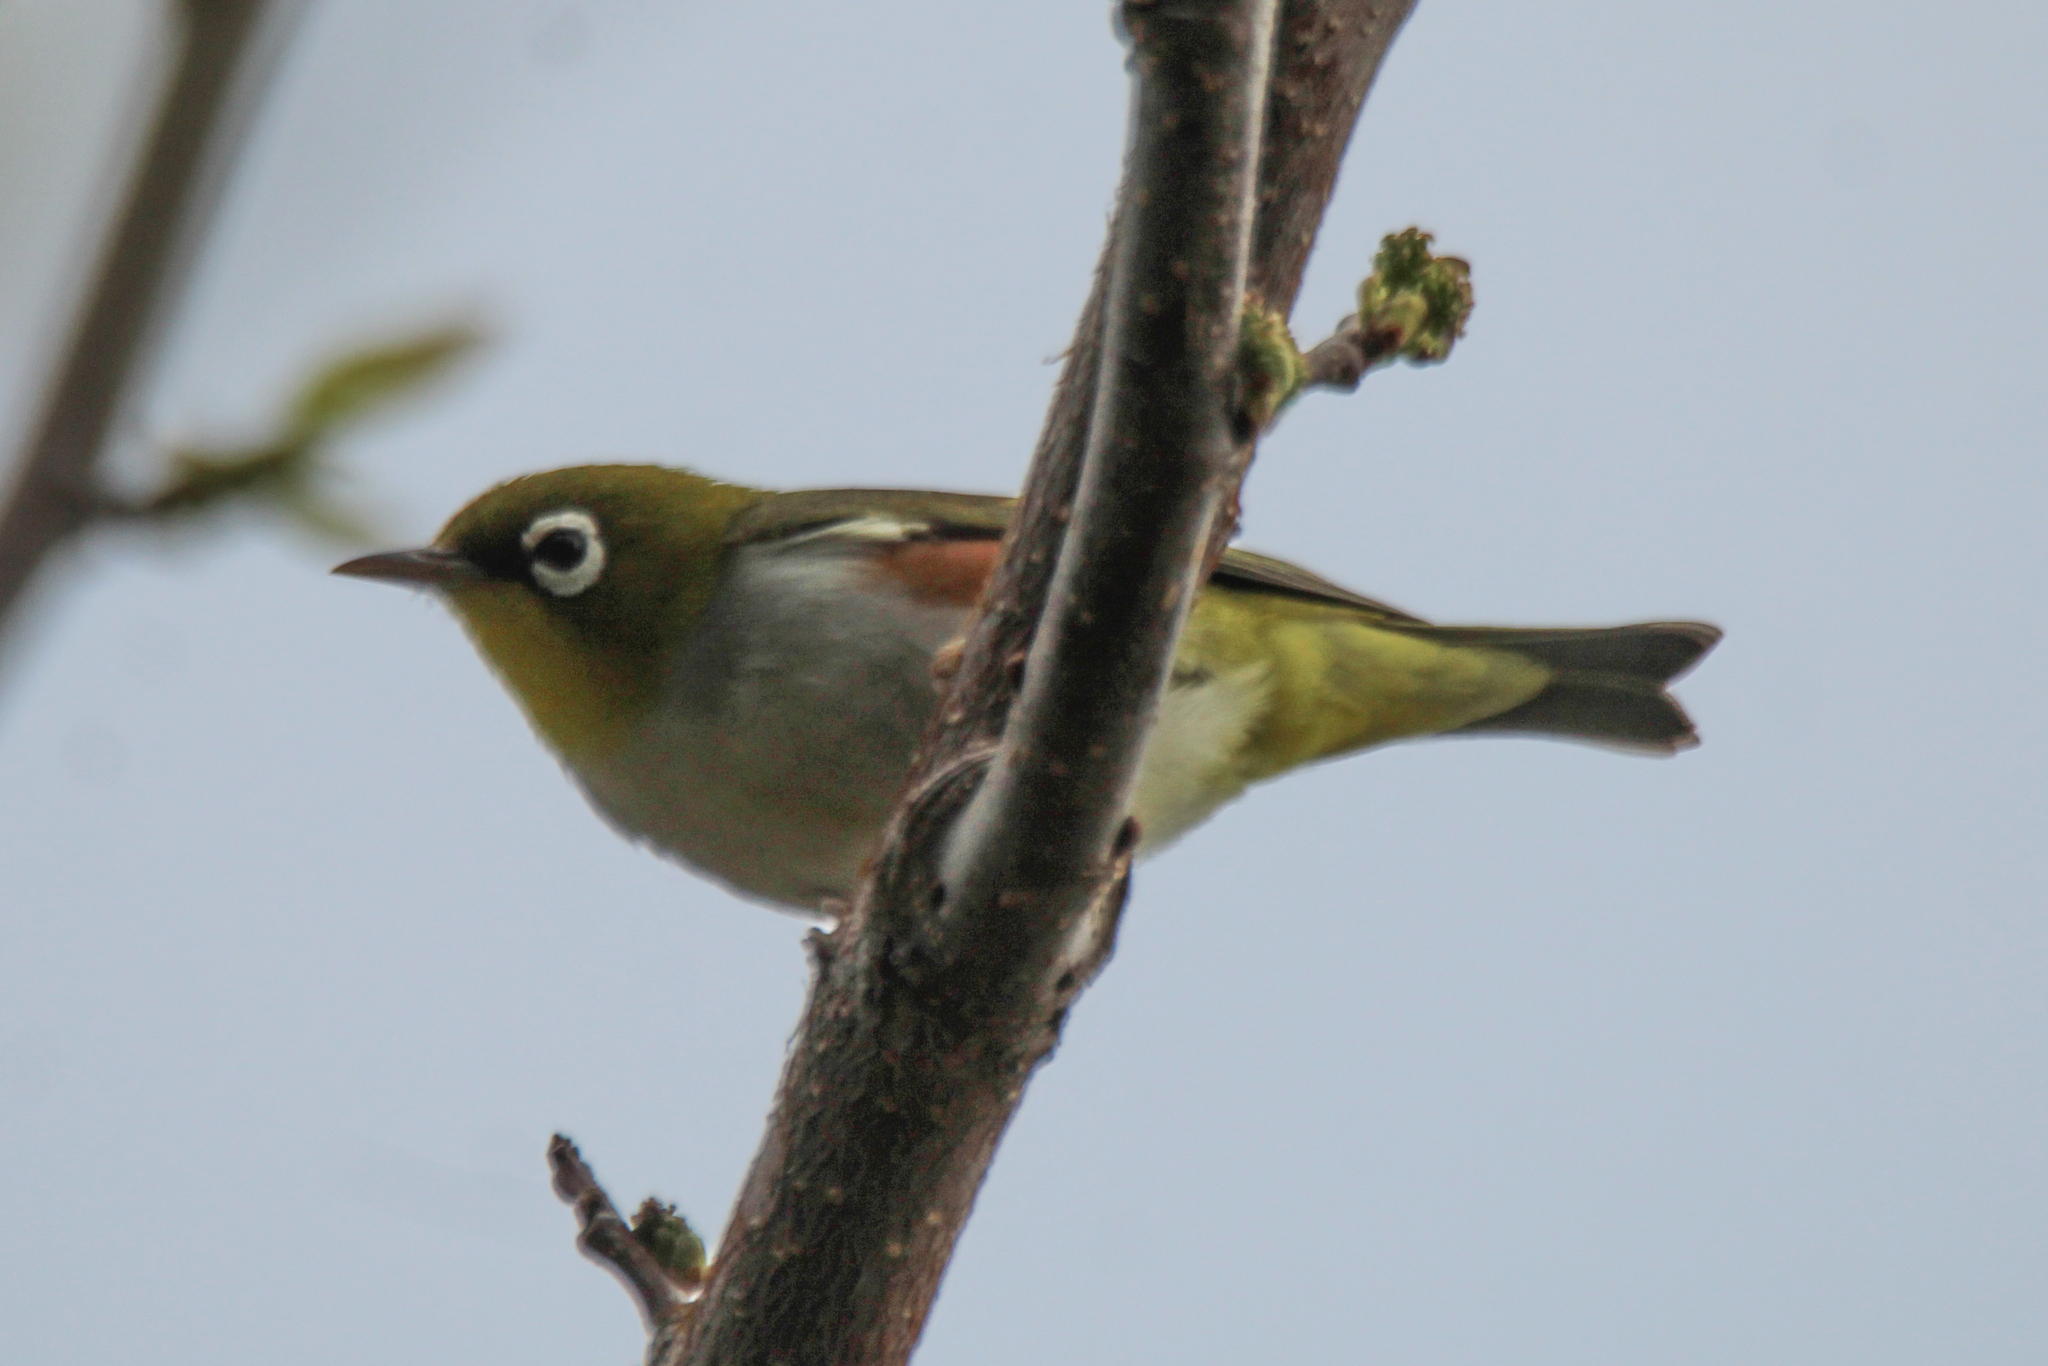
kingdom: Animalia
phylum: Chordata
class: Aves
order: Passeriformes
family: Zosteropidae
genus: Zosterops
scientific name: Zosterops erythropleurus
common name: Chestnut-flanked white-eye
